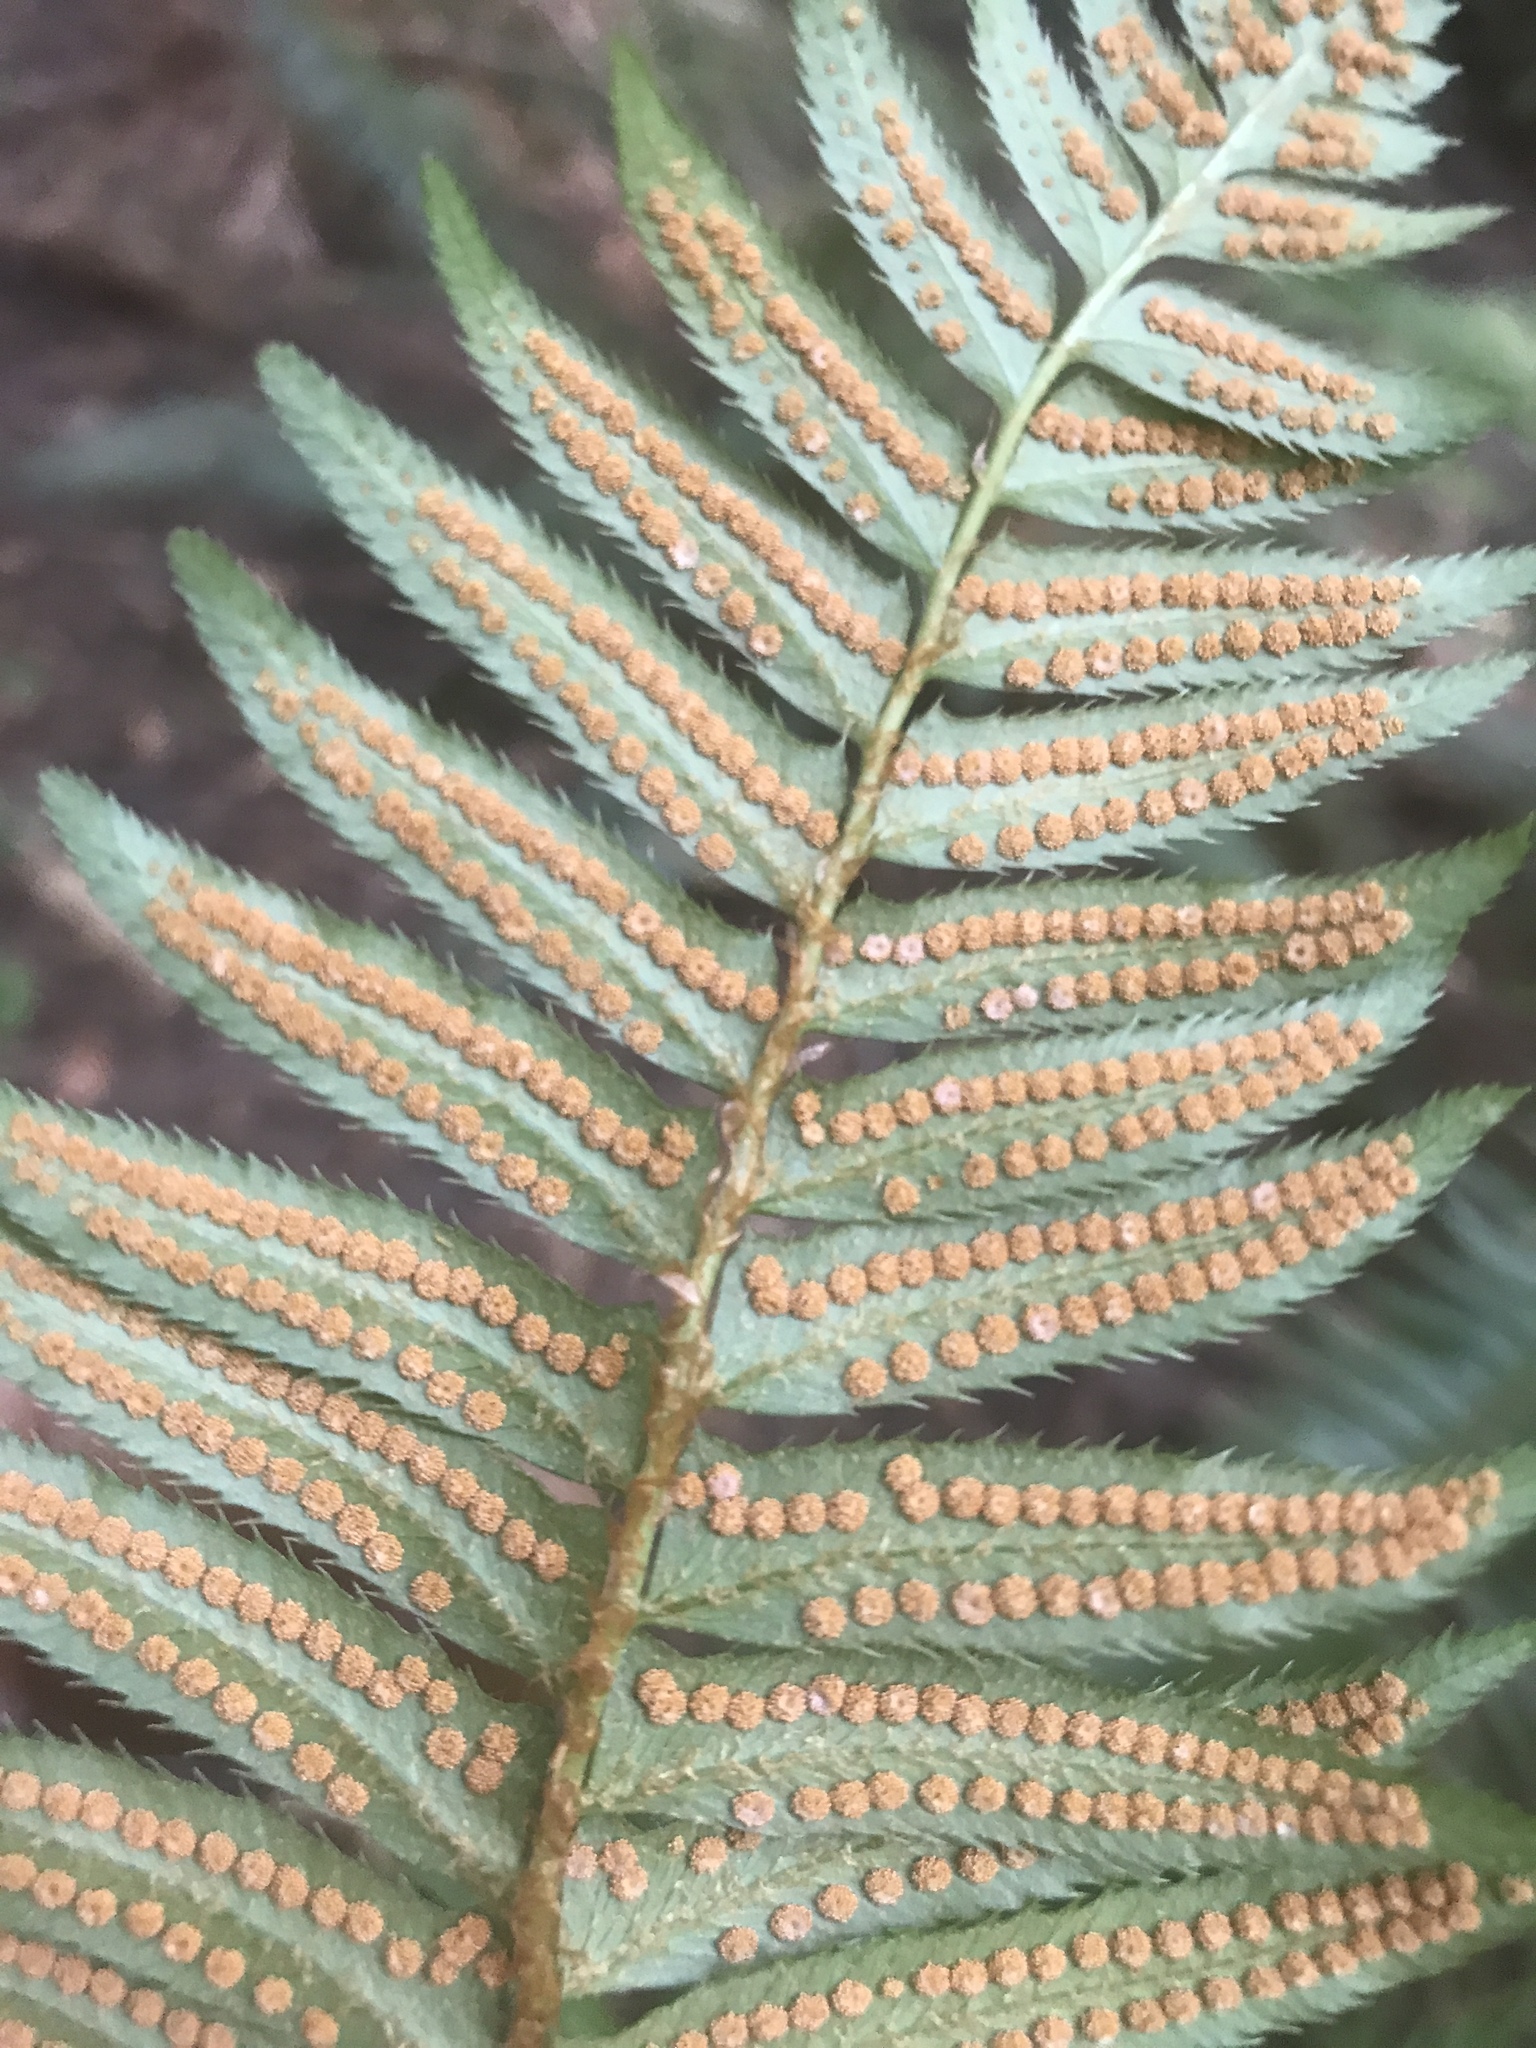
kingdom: Plantae
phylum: Tracheophyta
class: Polypodiopsida
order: Polypodiales
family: Dryopteridaceae
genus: Polystichum
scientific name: Polystichum munitum
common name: Western sword-fern
